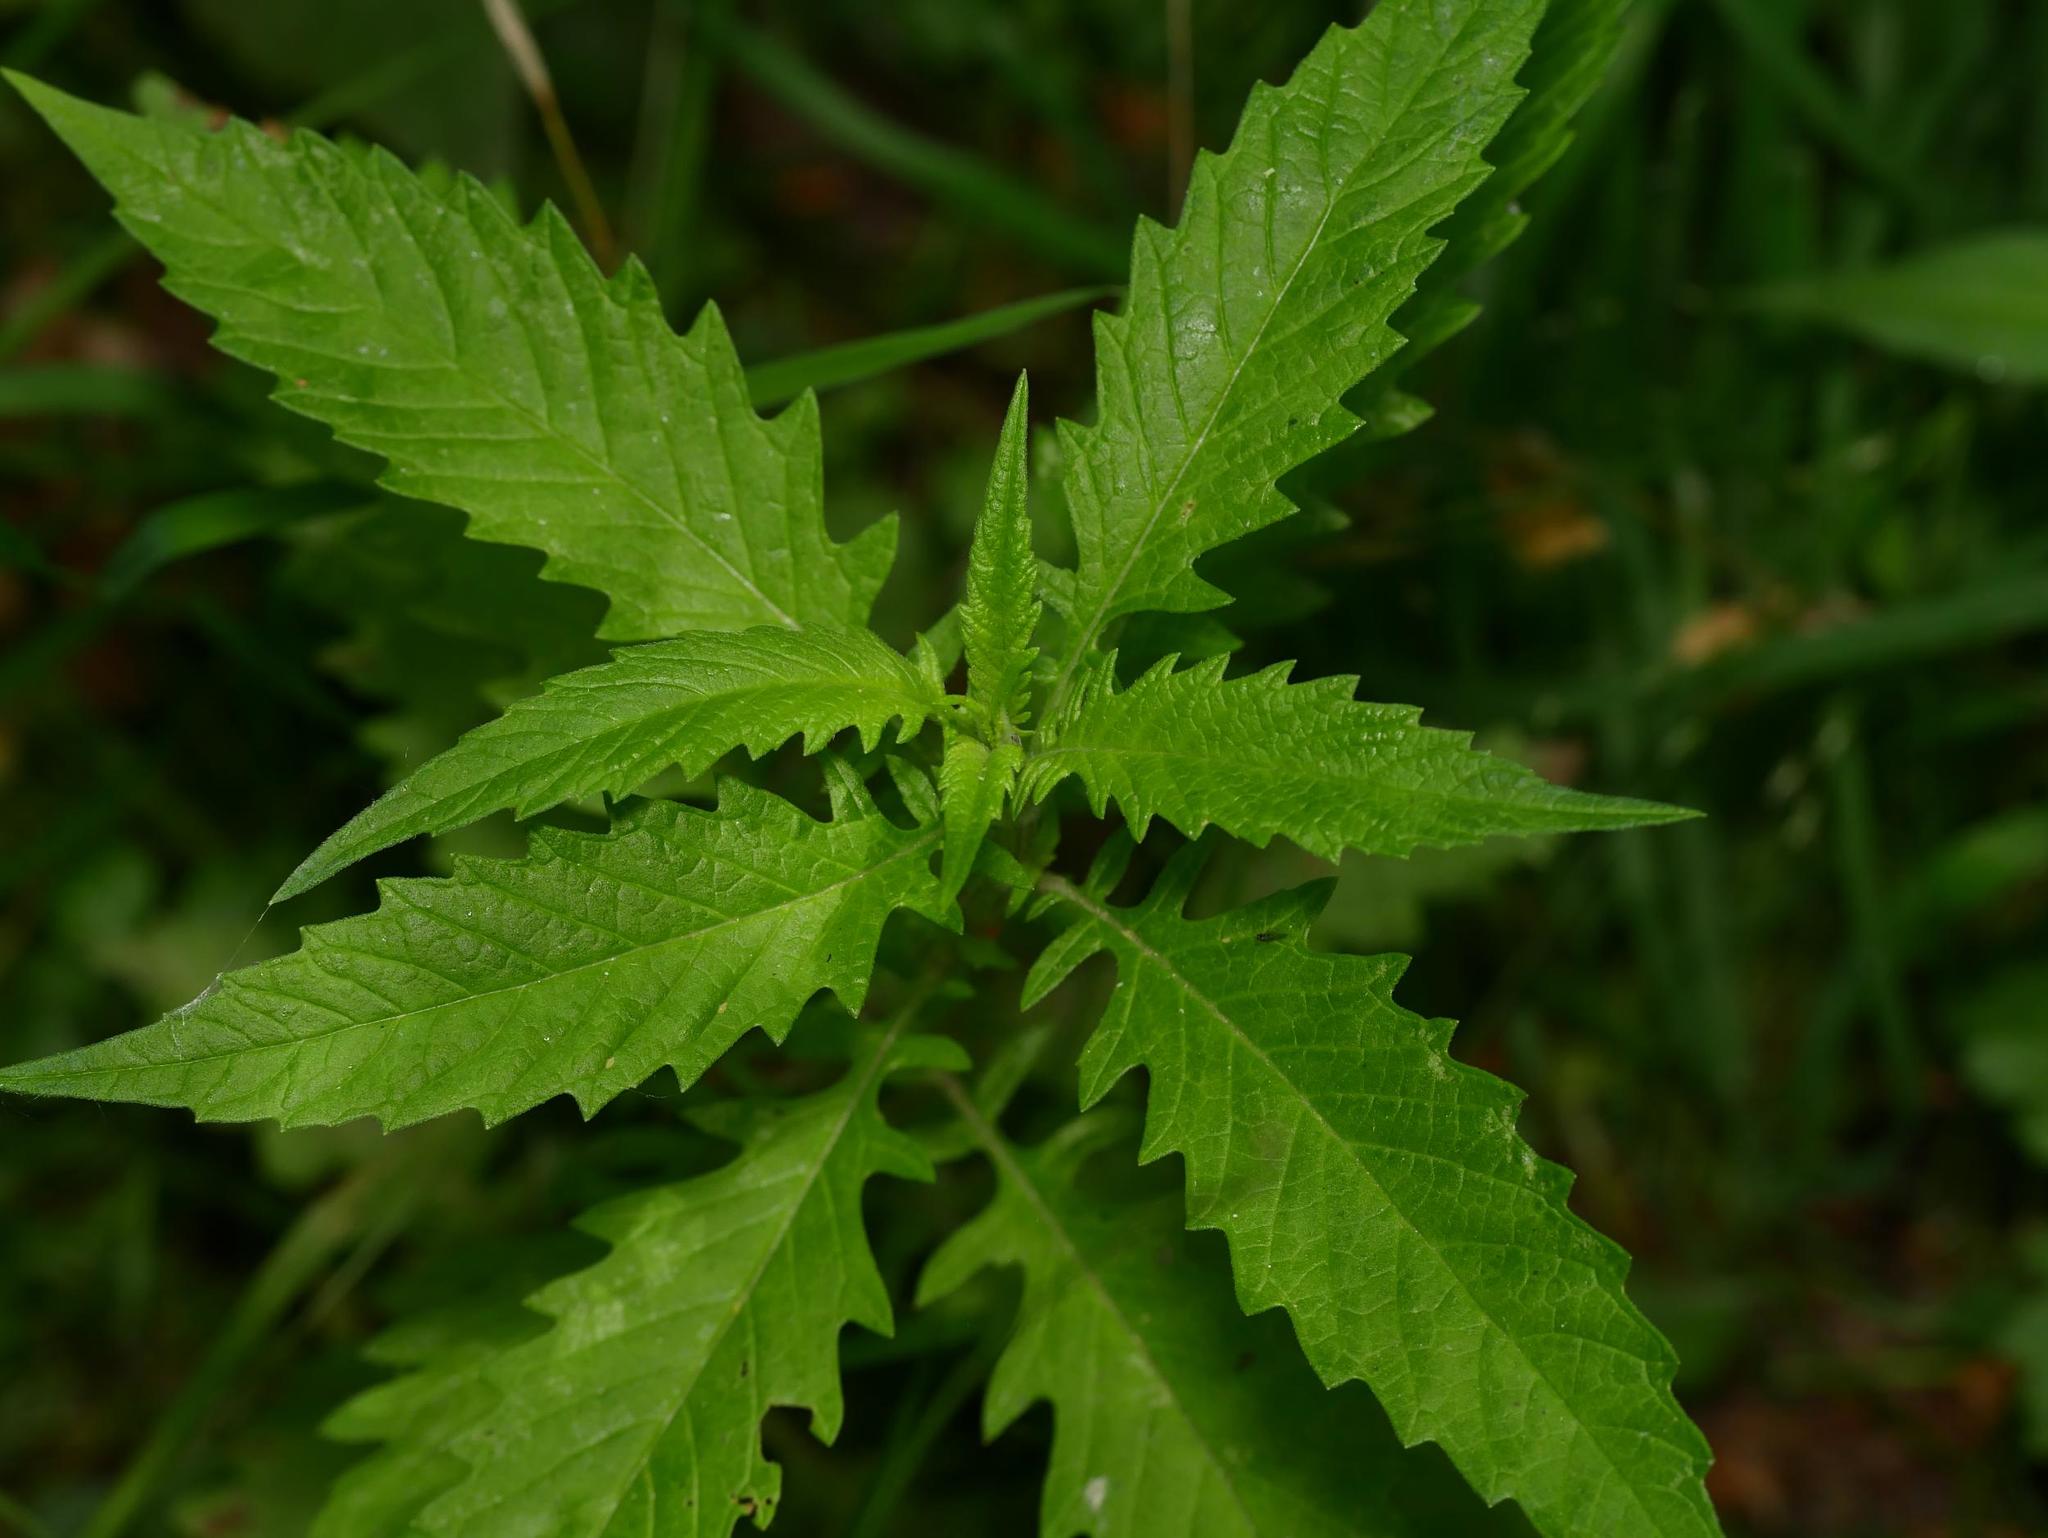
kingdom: Plantae
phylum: Tracheophyta
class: Magnoliopsida
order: Lamiales
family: Lamiaceae
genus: Lycopus
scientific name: Lycopus europaeus
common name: European bugleweed
